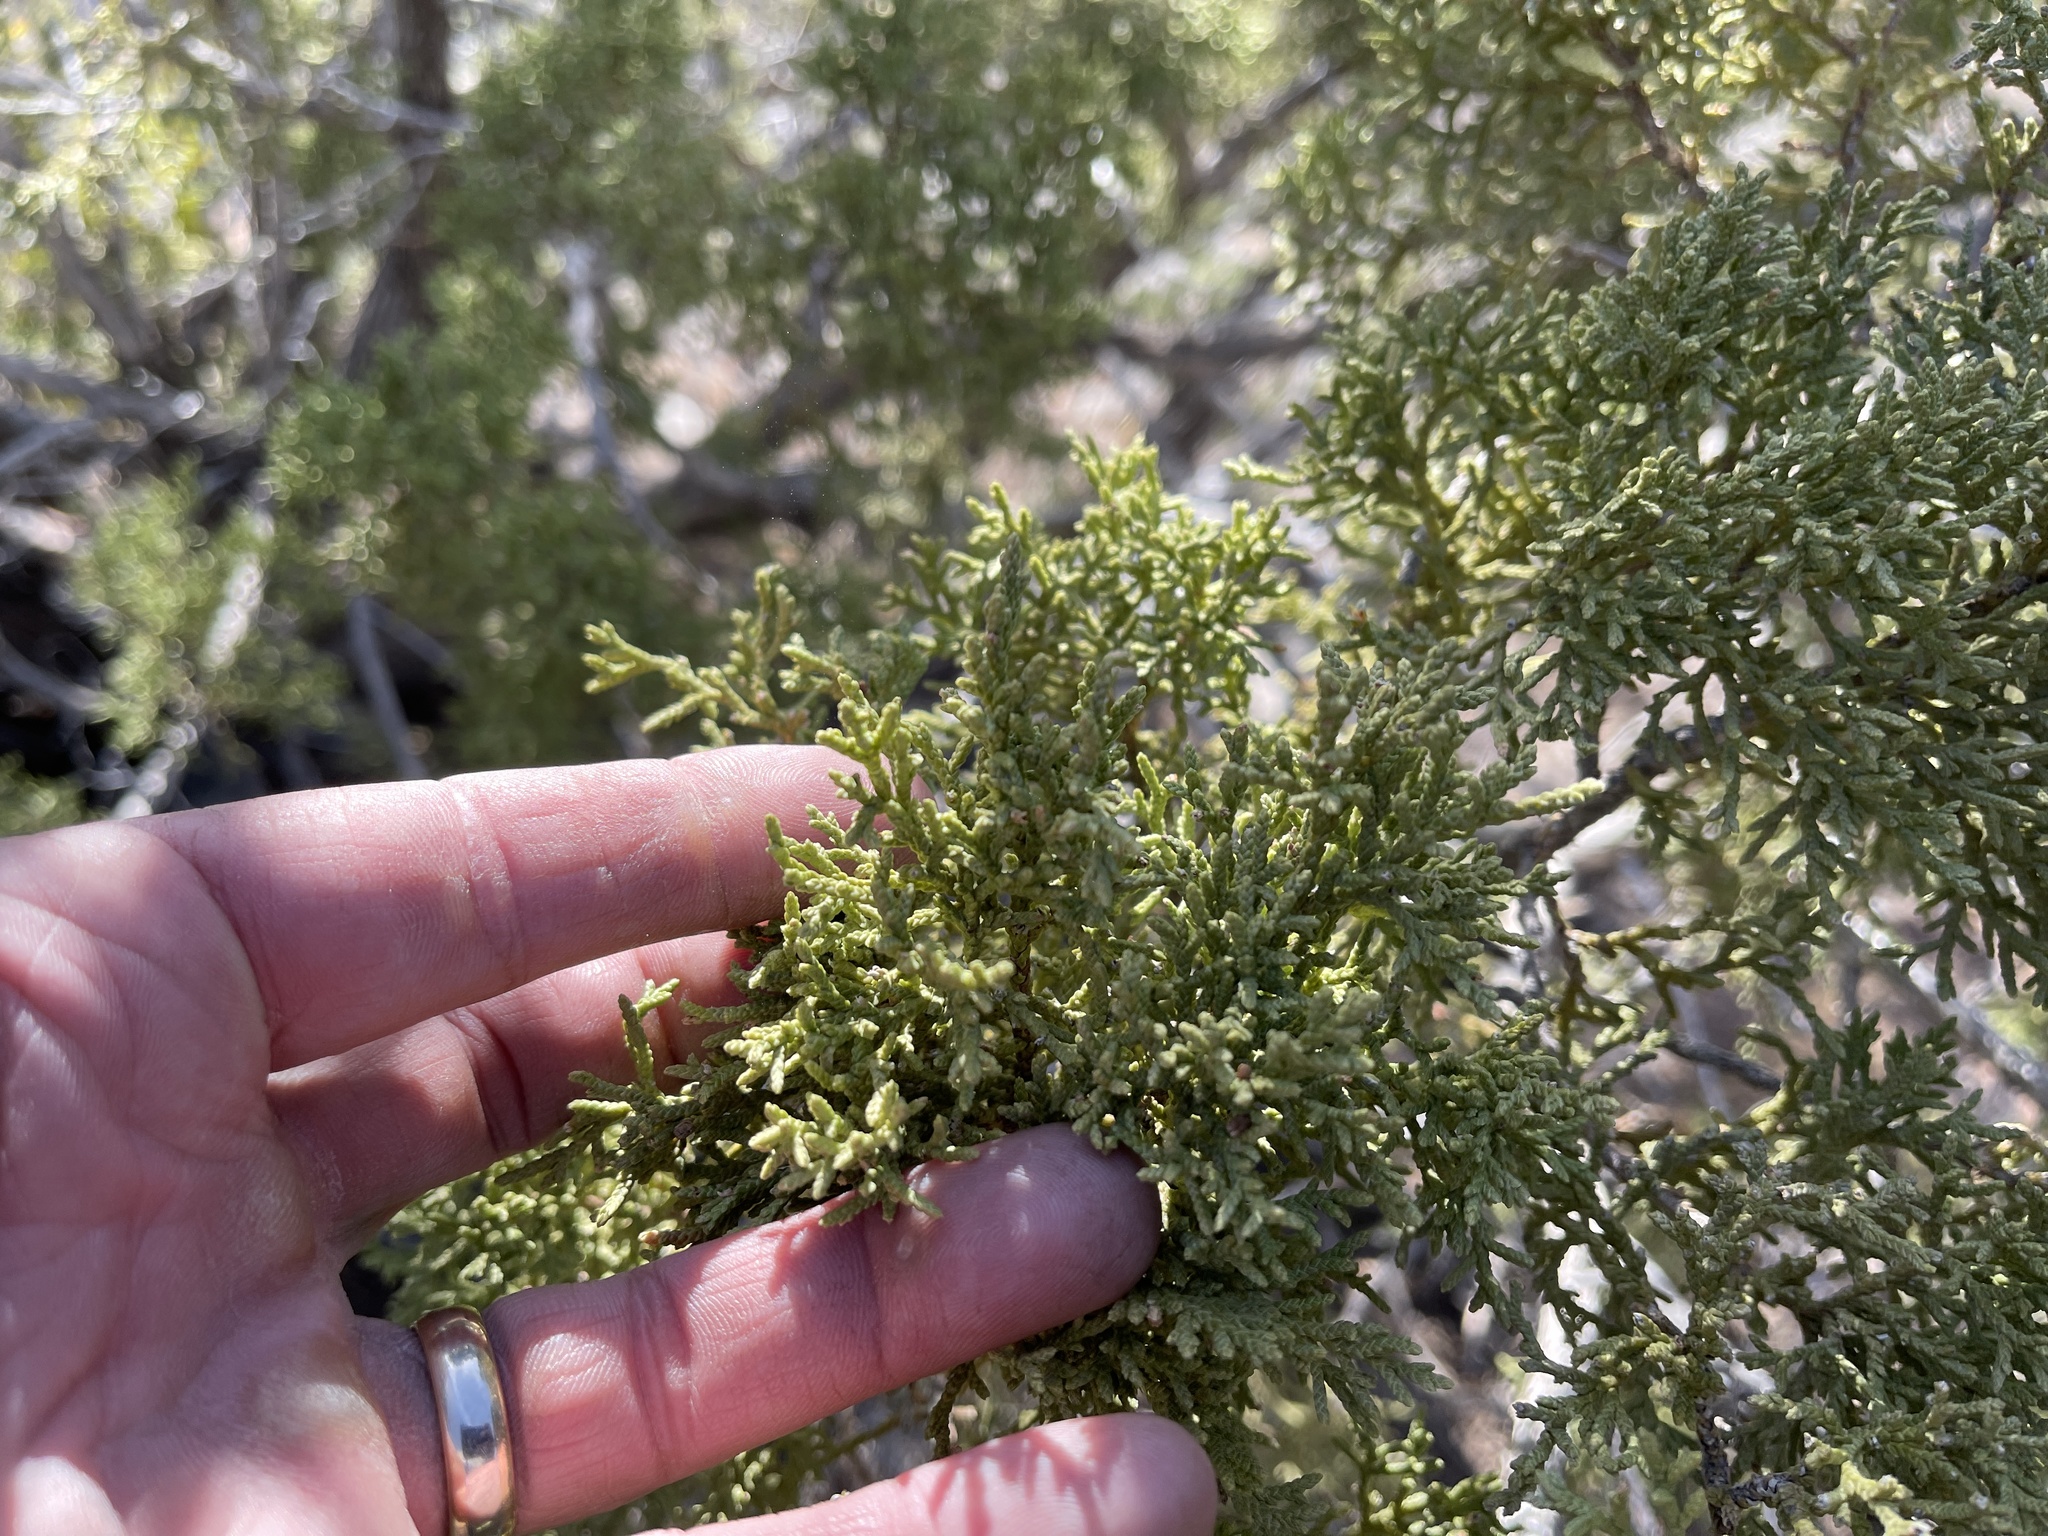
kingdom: Plantae
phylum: Tracheophyta
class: Pinopsida
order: Pinales
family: Cupressaceae
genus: Juniperus
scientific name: Juniperus monosperma
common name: One-seed juniper
